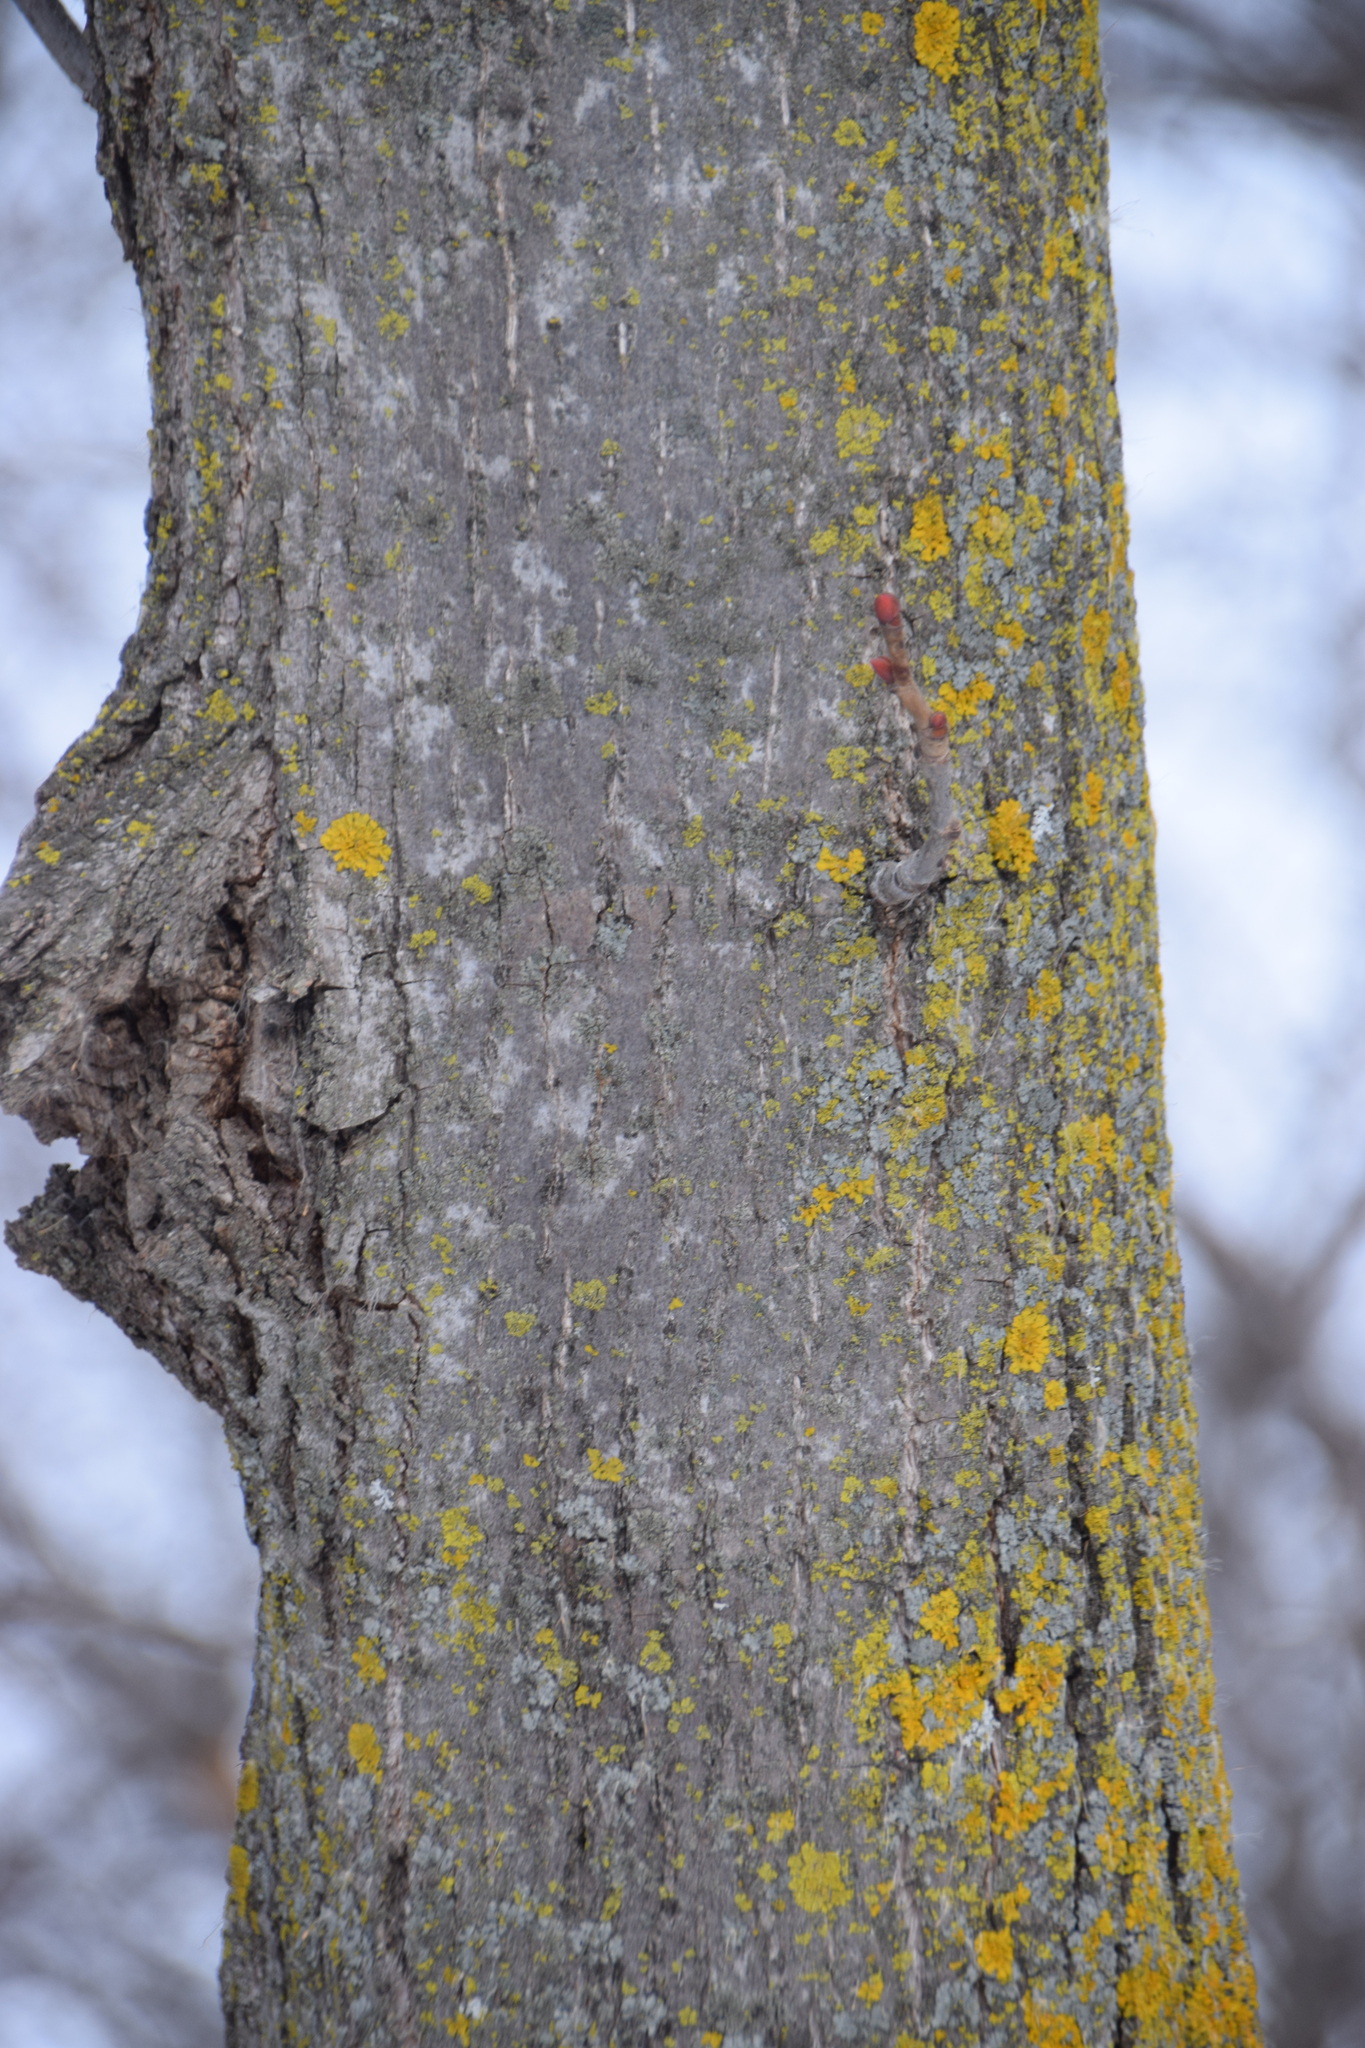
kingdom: Plantae
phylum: Tracheophyta
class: Magnoliopsida
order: Malvales
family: Malvaceae
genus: Tilia
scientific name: Tilia americana
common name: Basswood
